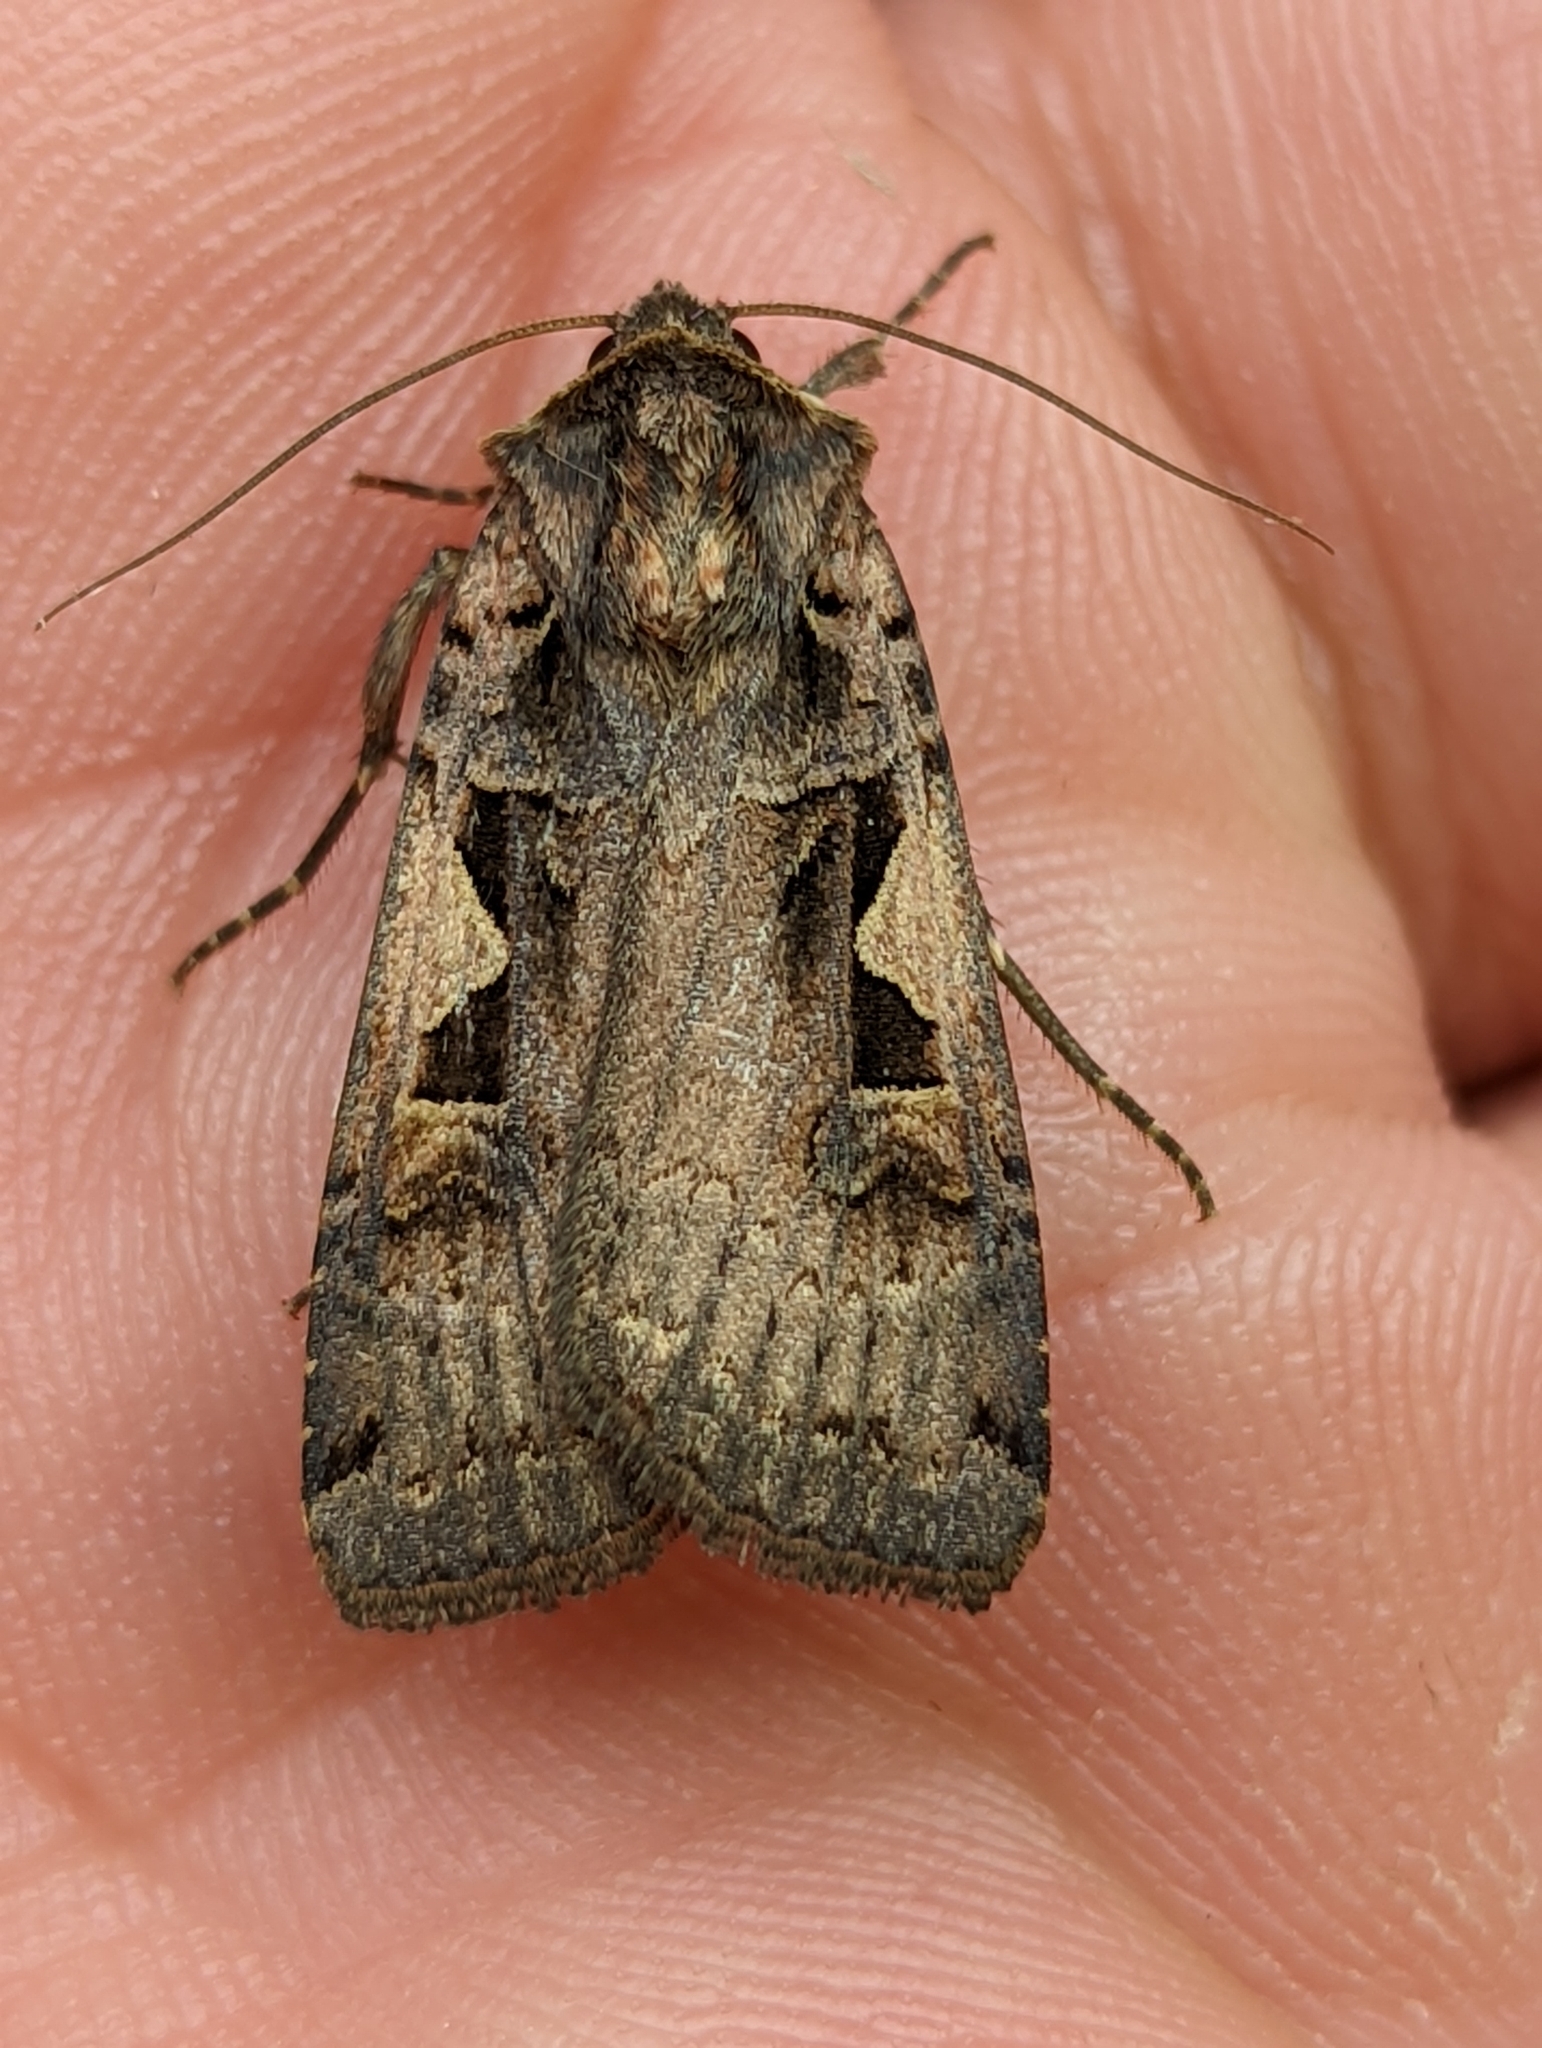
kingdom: Animalia
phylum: Arthropoda
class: Insecta
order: Lepidoptera
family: Noctuidae
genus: Xestia
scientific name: Xestia c-nigrum
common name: Setaceous hebrew character
